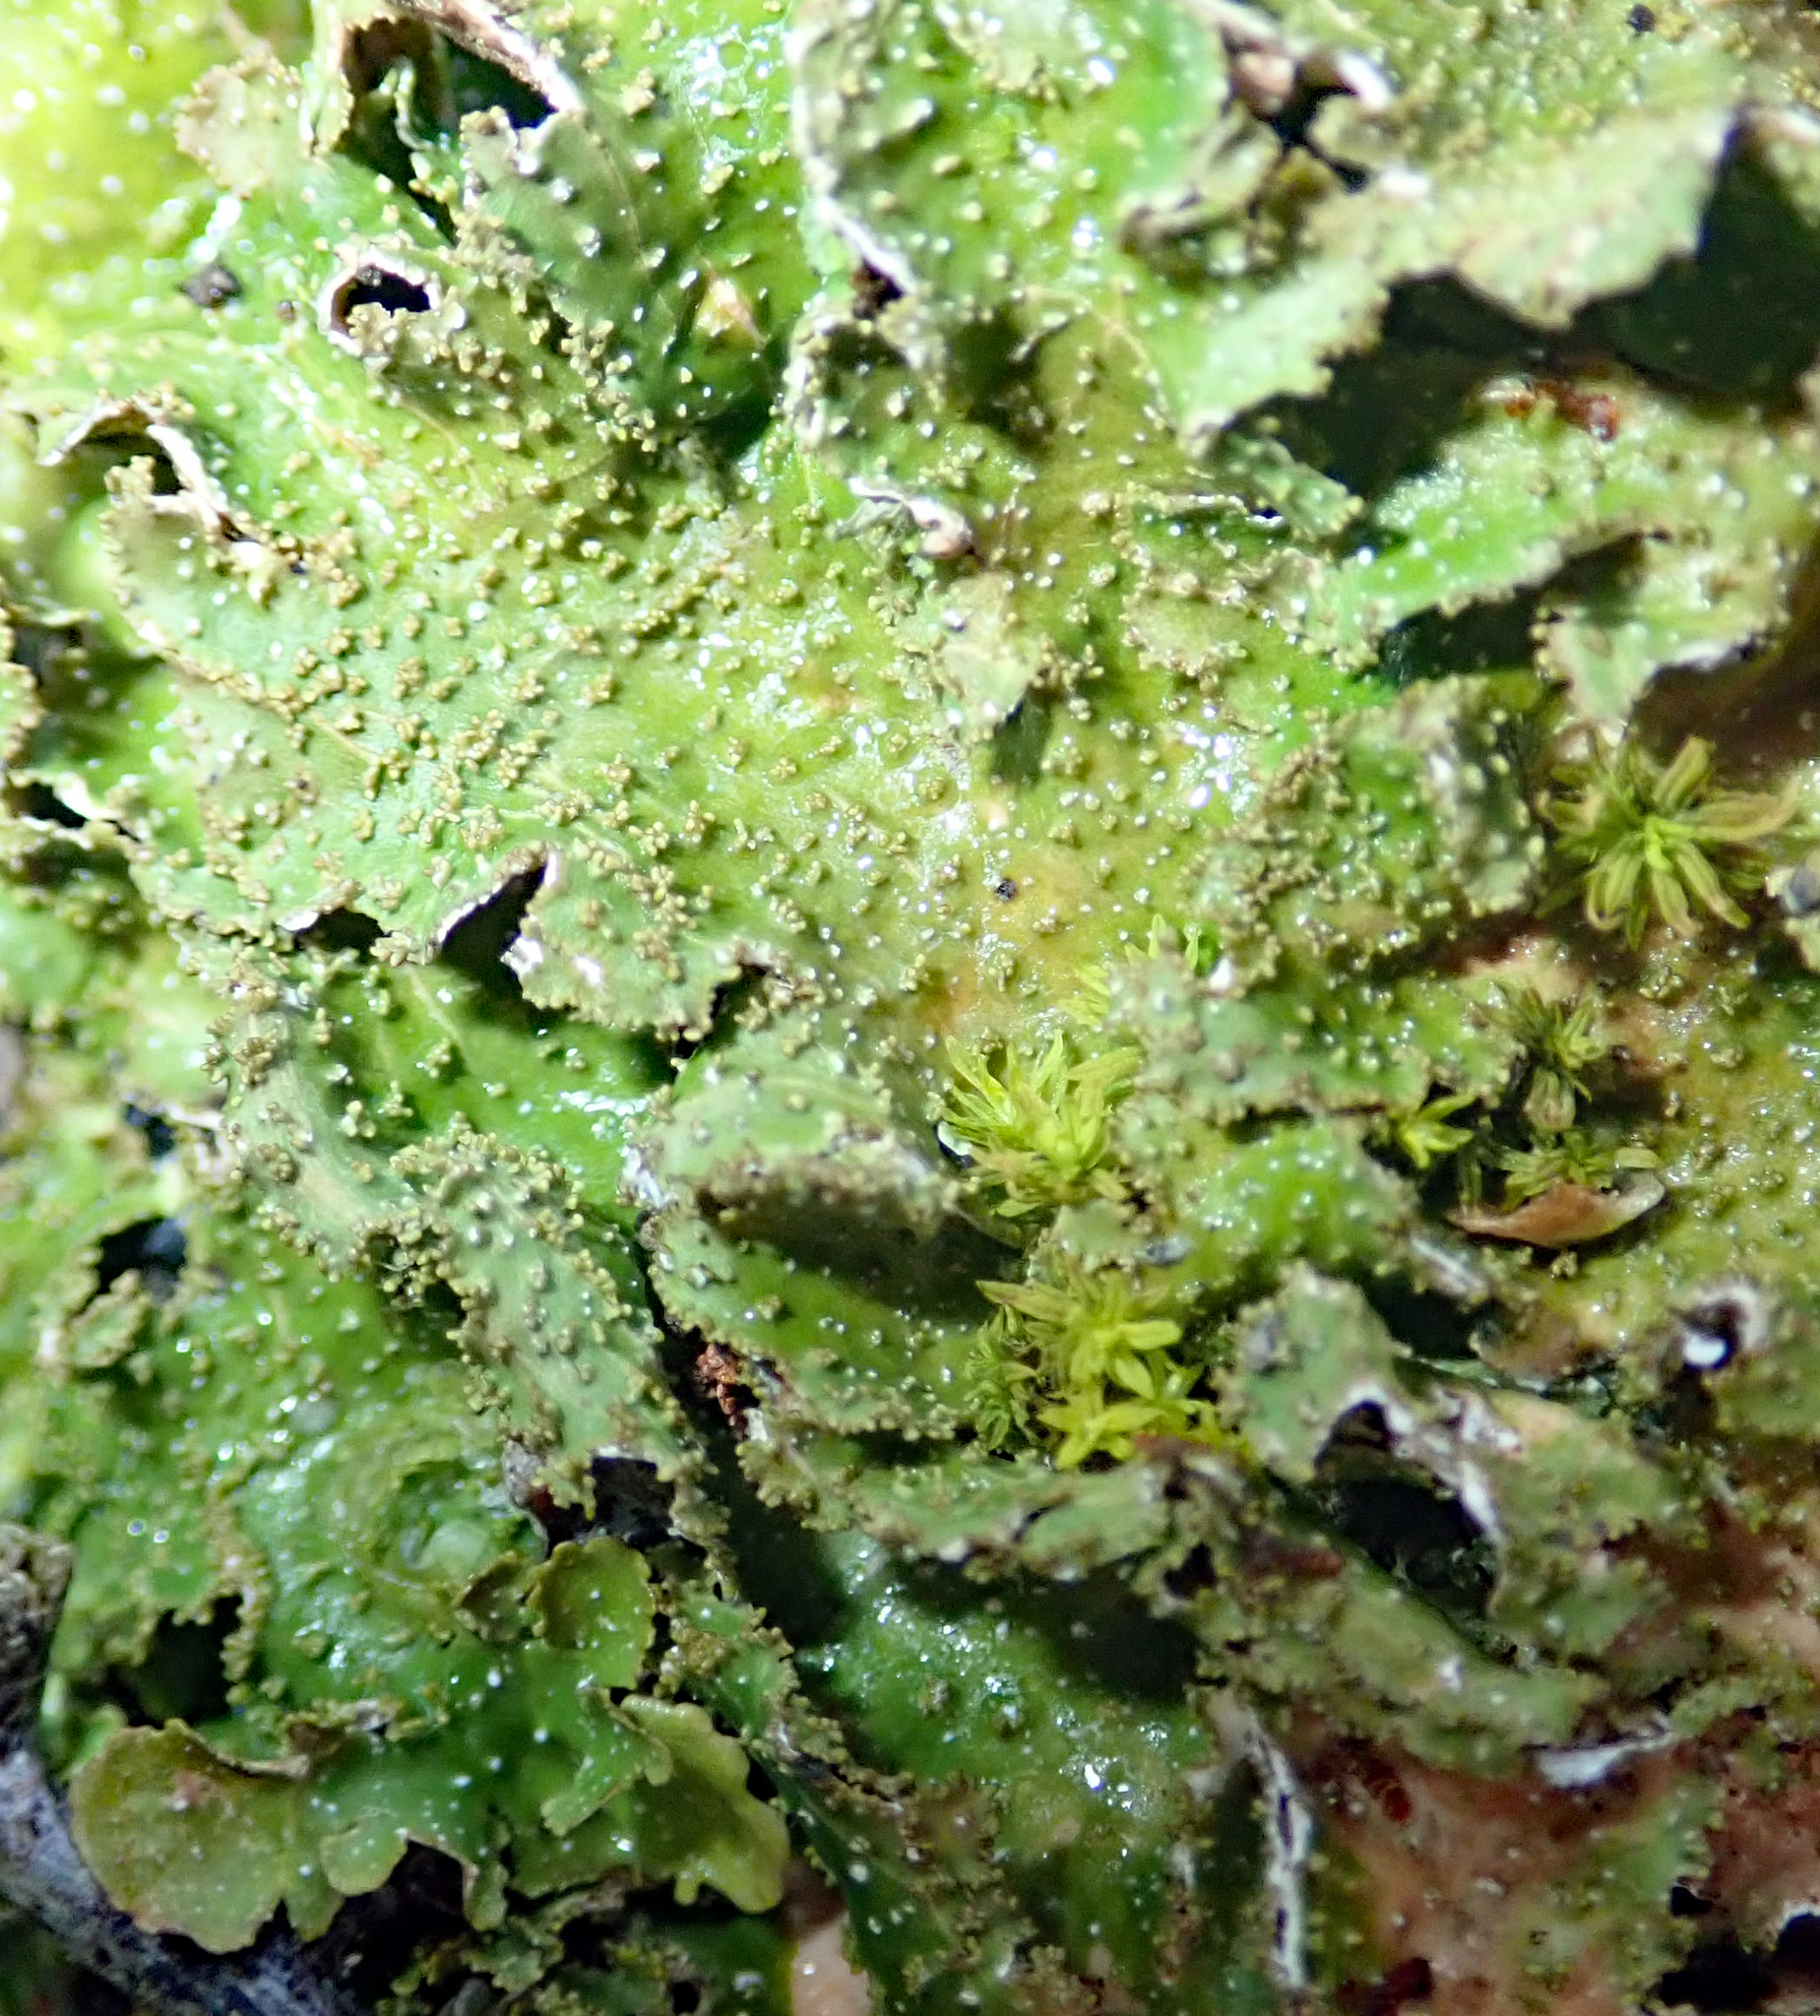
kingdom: Fungi
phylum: Ascomycota
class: Lecanoromycetes
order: Peltigerales
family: Lobariaceae
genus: Pseudocyphellaria
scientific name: Pseudocyphellaria wilkinsii
